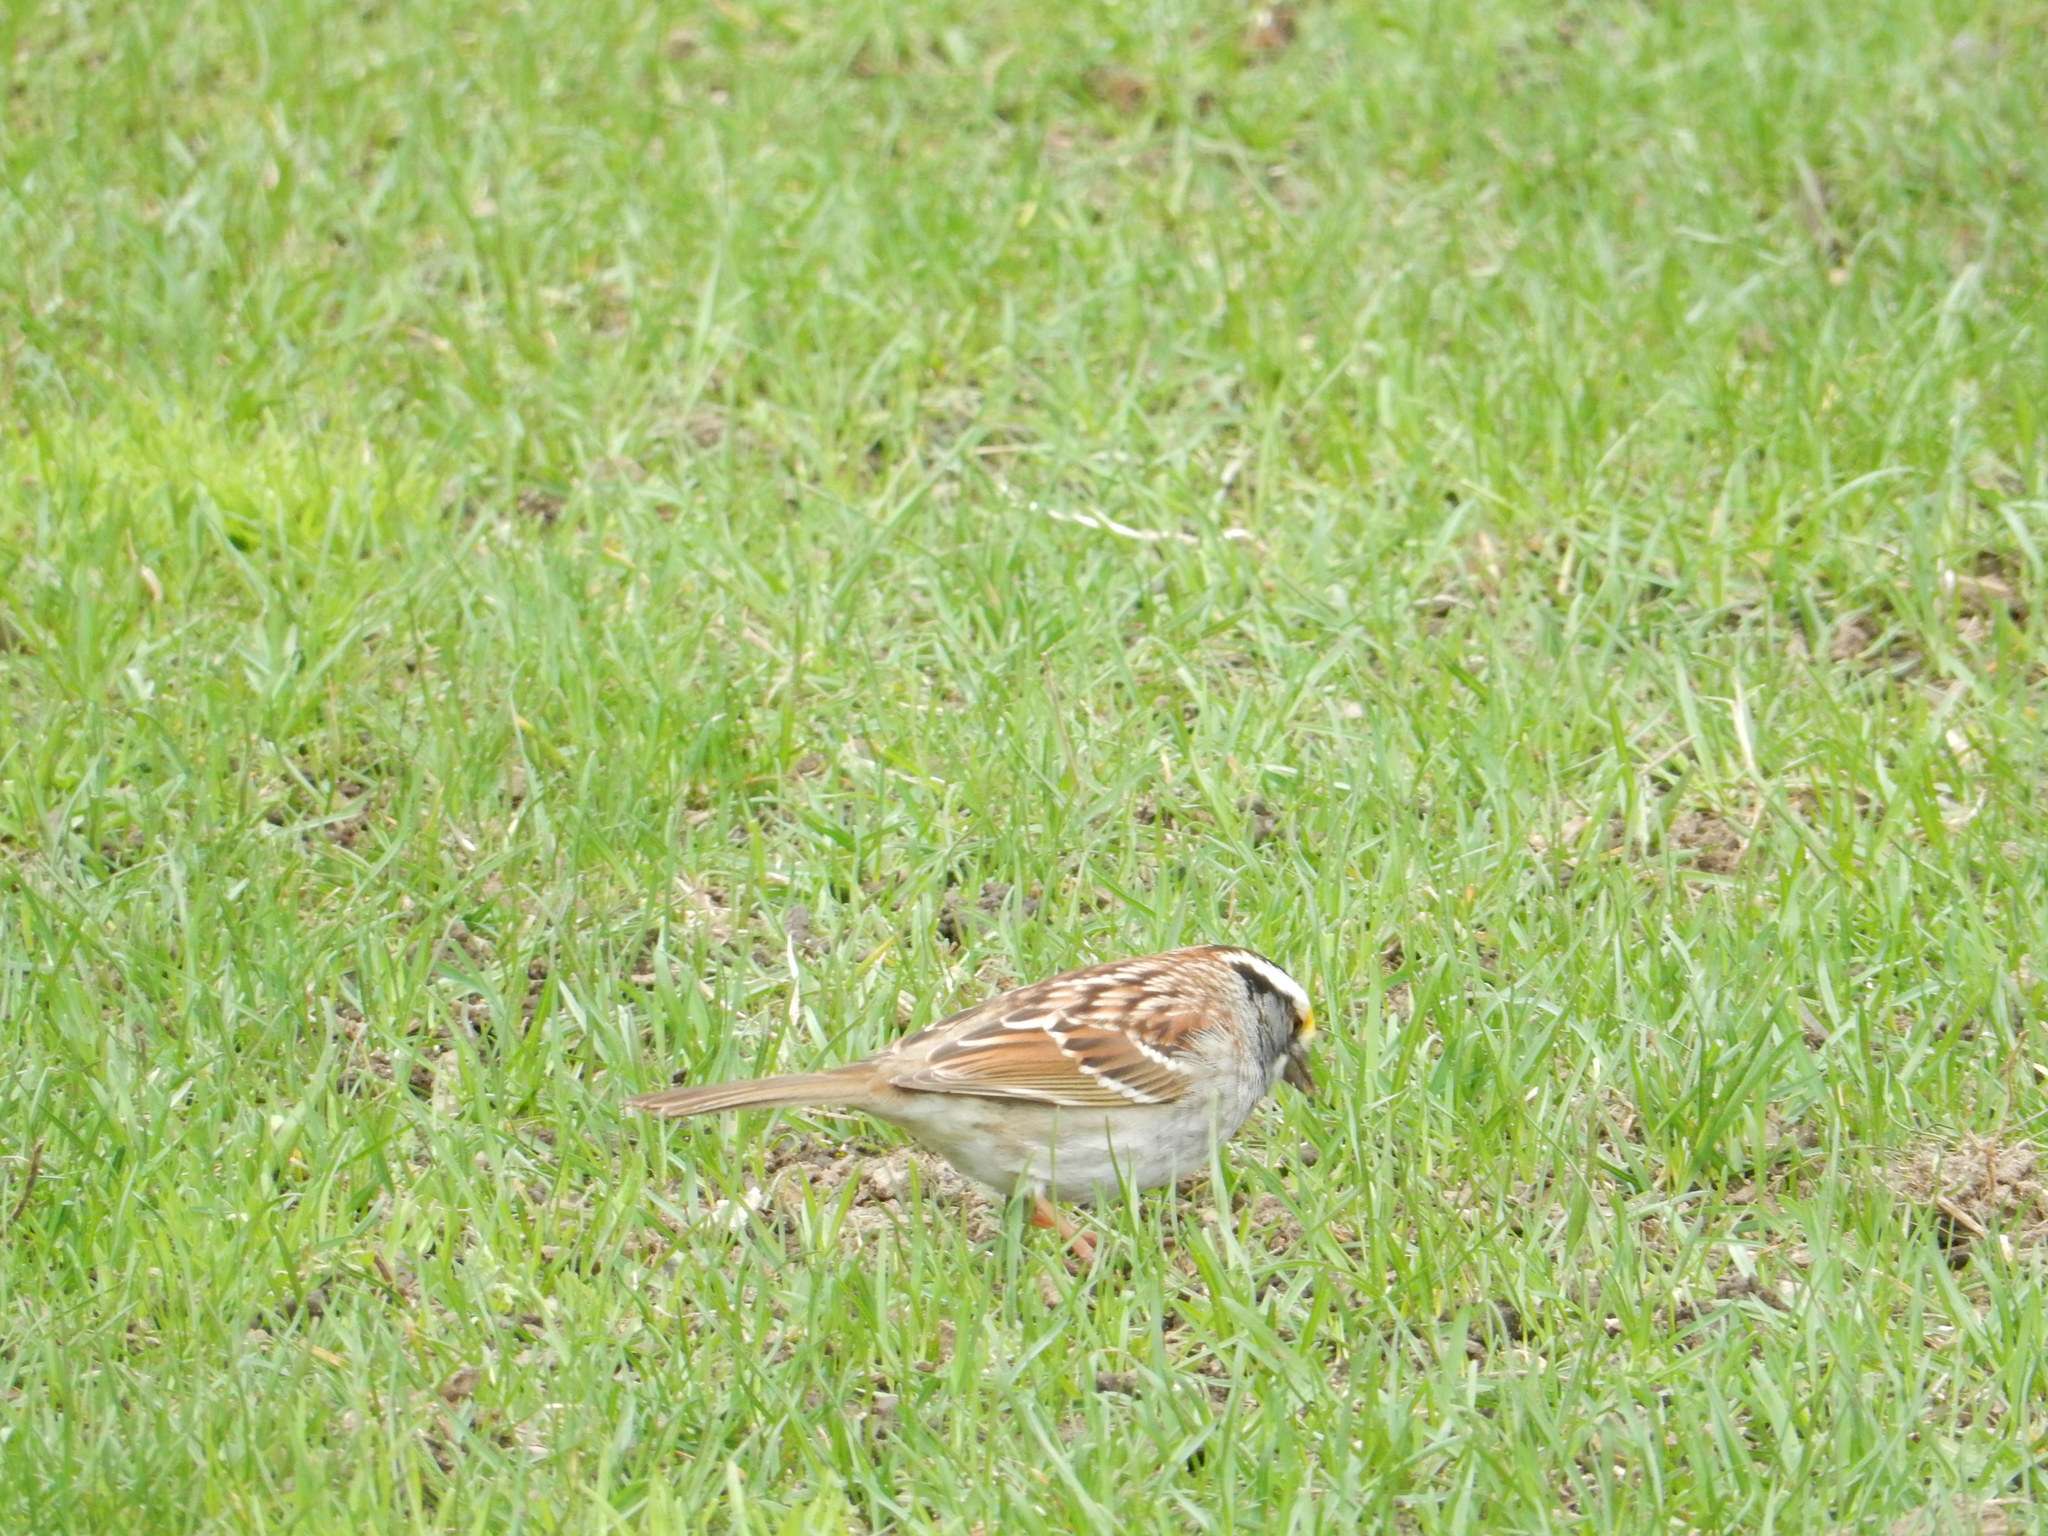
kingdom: Animalia
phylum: Chordata
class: Aves
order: Passeriformes
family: Passerellidae
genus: Zonotrichia
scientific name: Zonotrichia albicollis
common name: White-throated sparrow
